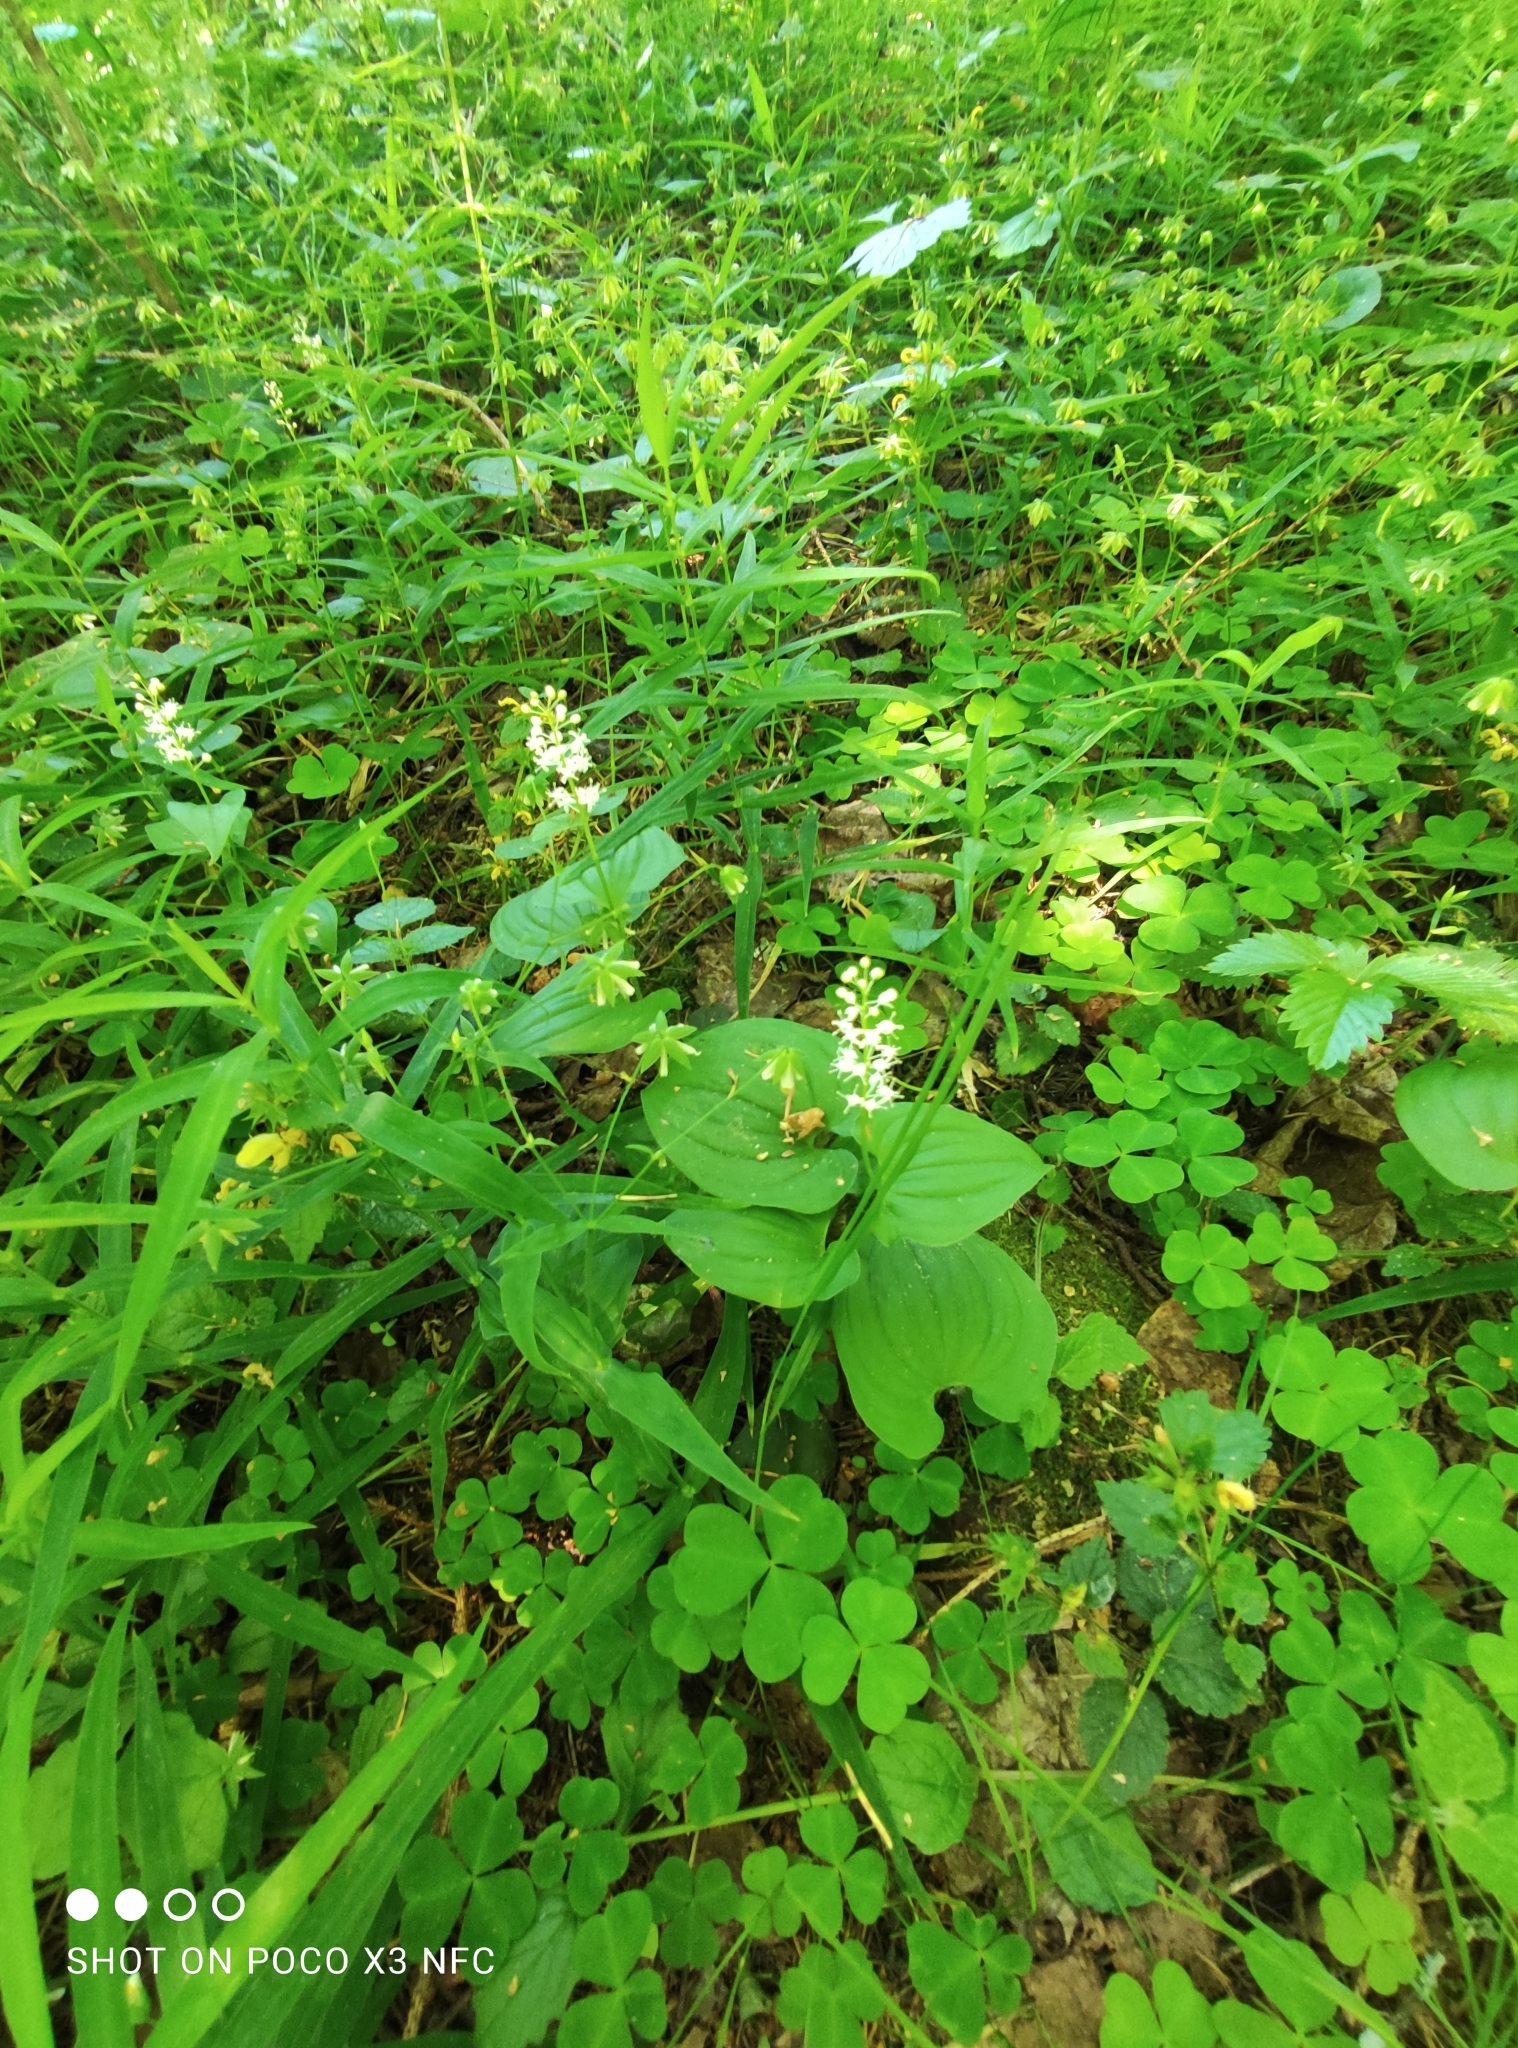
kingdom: Plantae
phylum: Tracheophyta
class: Liliopsida
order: Asparagales
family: Asparagaceae
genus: Maianthemum
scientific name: Maianthemum bifolium
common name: May lily
